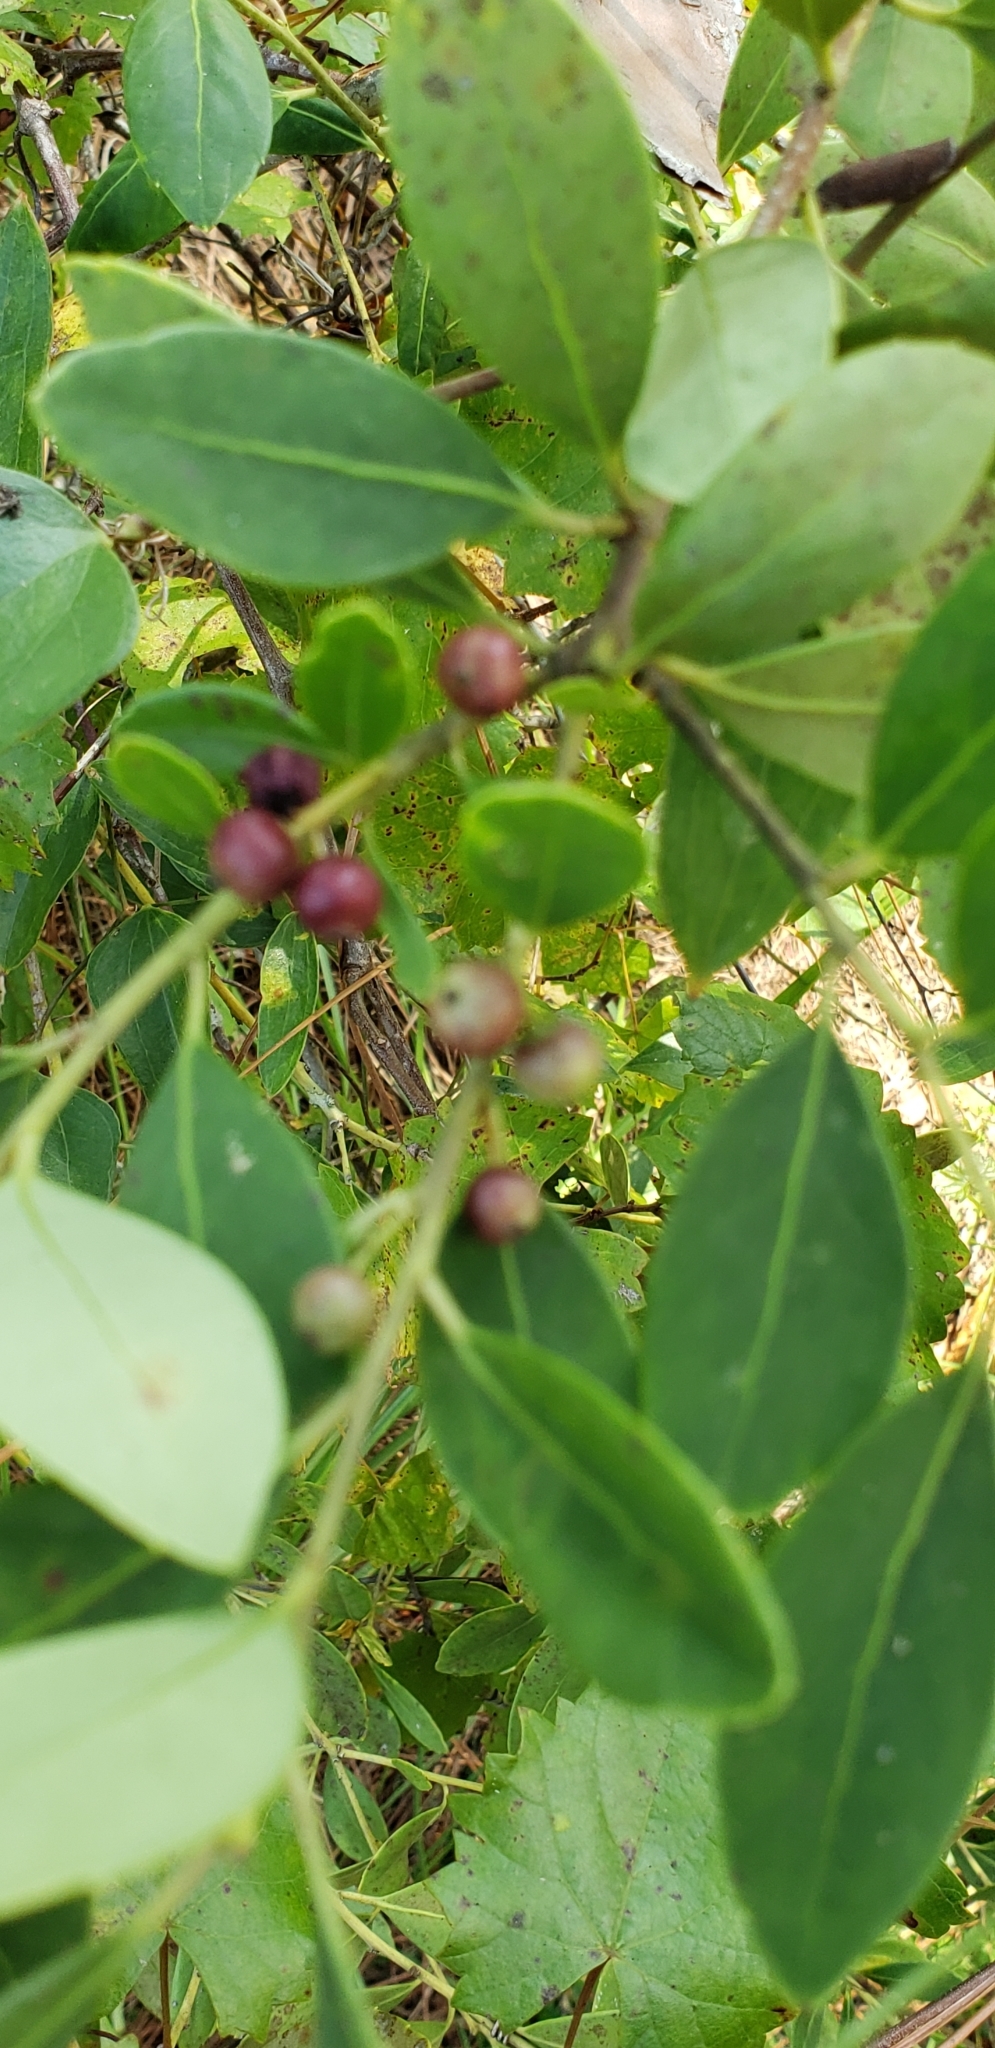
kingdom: Plantae
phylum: Tracheophyta
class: Magnoliopsida
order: Aquifoliales
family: Aquifoliaceae
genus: Ilex
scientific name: Ilex glabra
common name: Bitter gallberry
